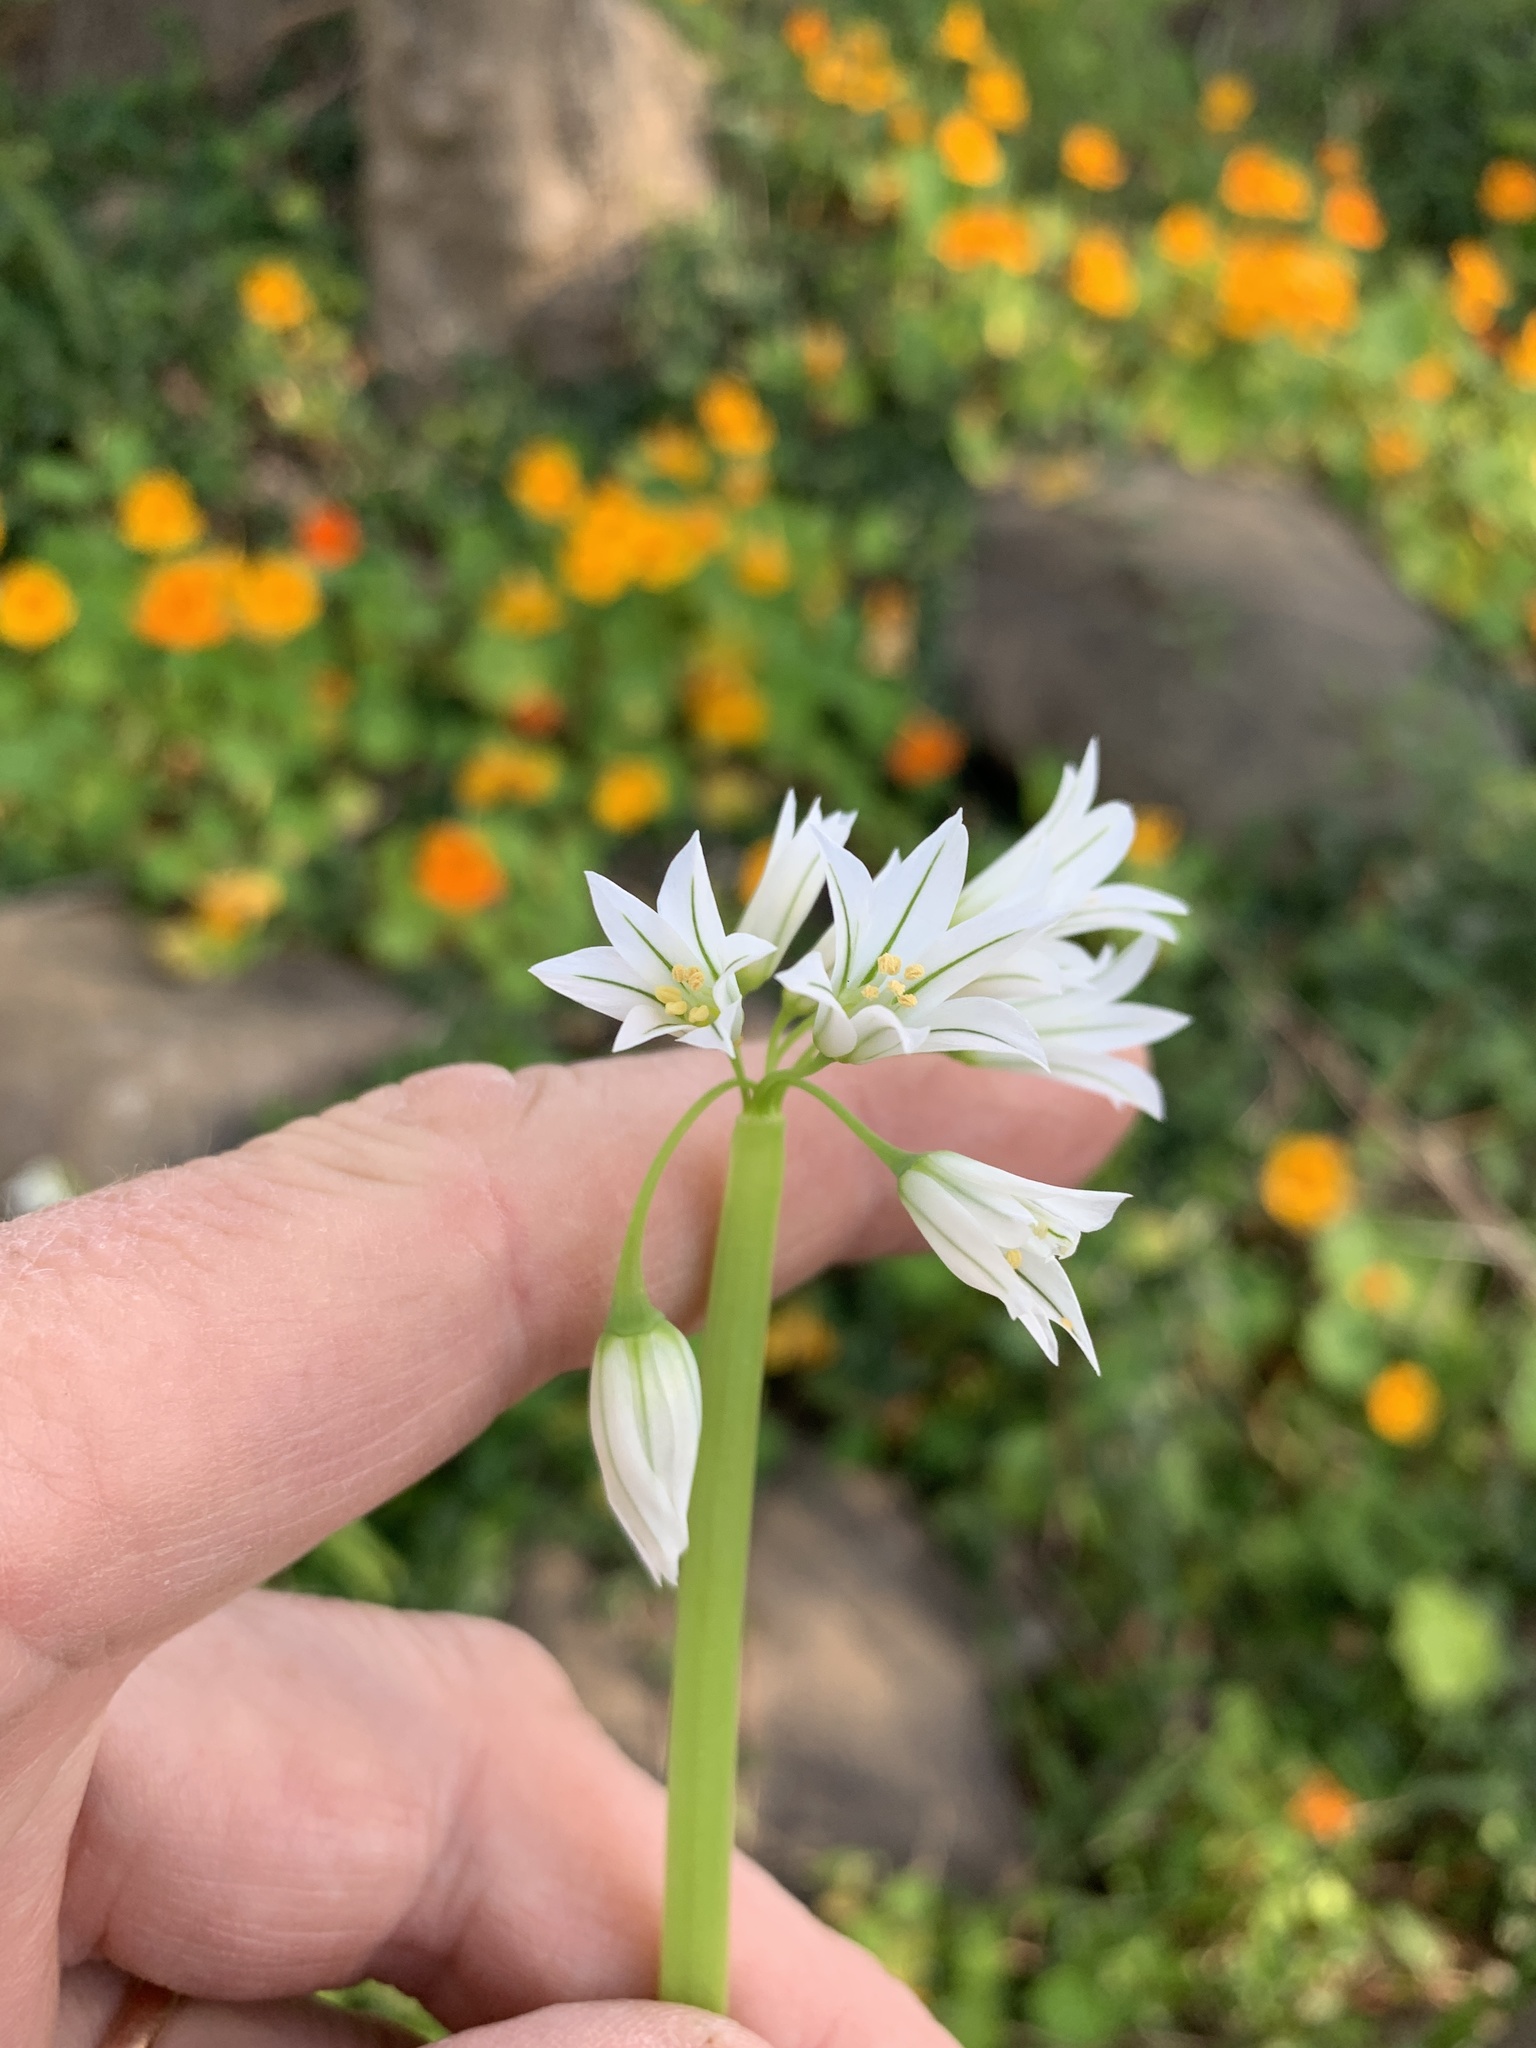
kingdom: Plantae
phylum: Tracheophyta
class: Liliopsida
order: Asparagales
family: Amaryllidaceae
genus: Allium
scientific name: Allium triquetrum
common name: Three-cornered garlic
